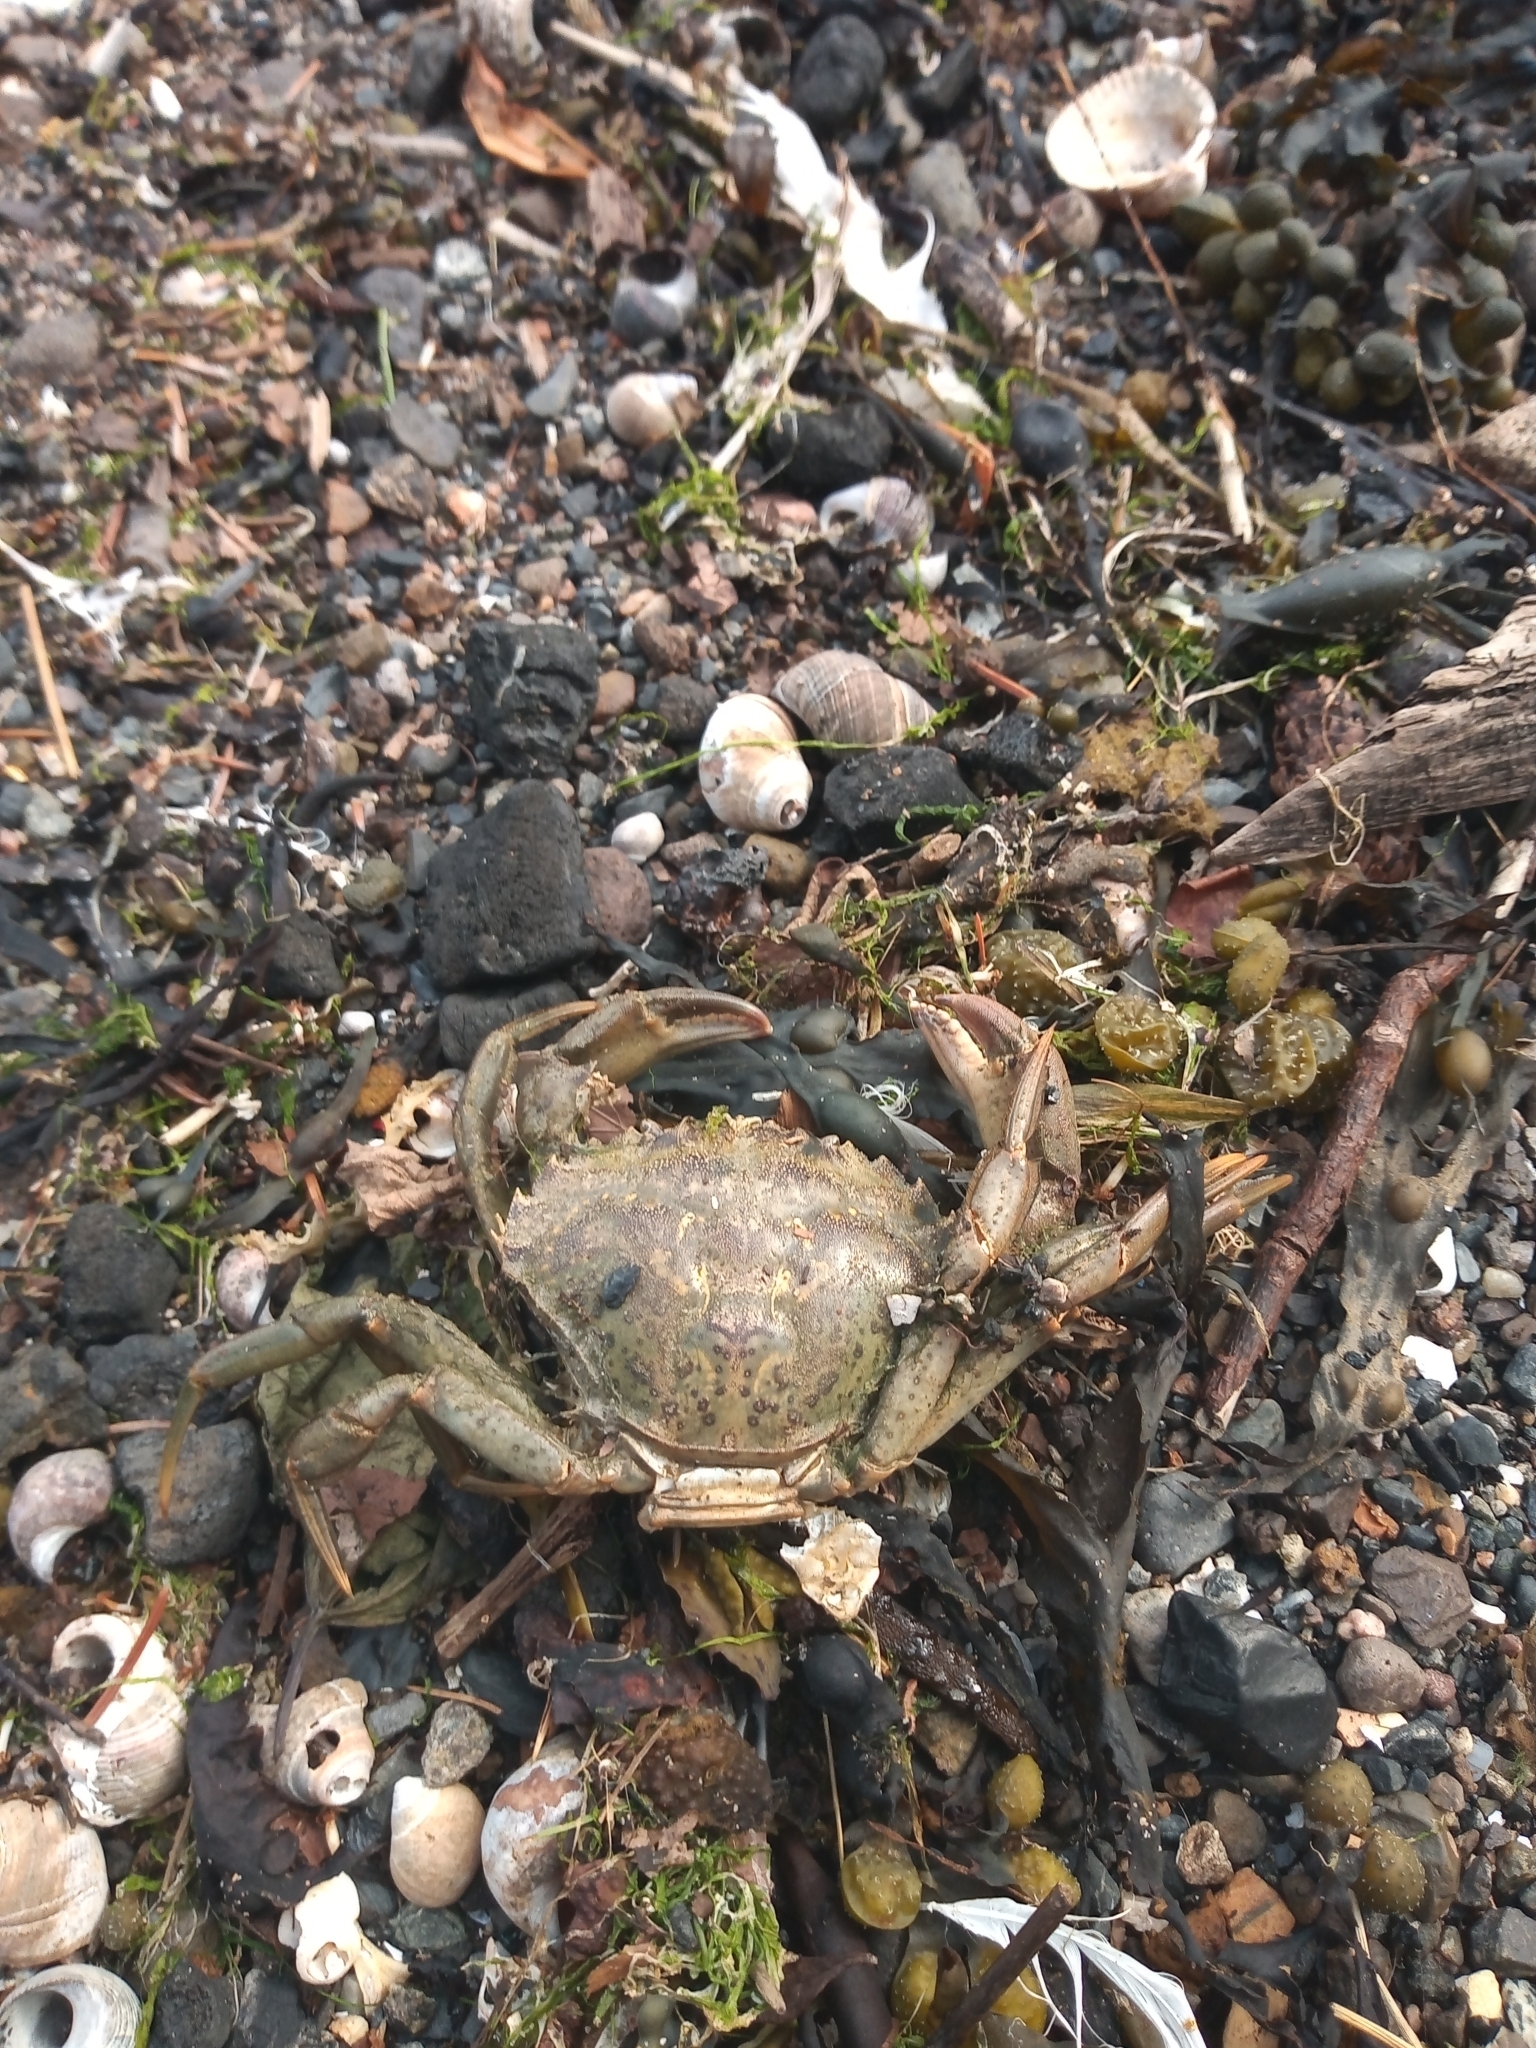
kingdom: Animalia
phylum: Arthropoda
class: Malacostraca
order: Decapoda
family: Carcinidae
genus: Carcinus
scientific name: Carcinus maenas
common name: European green crab
